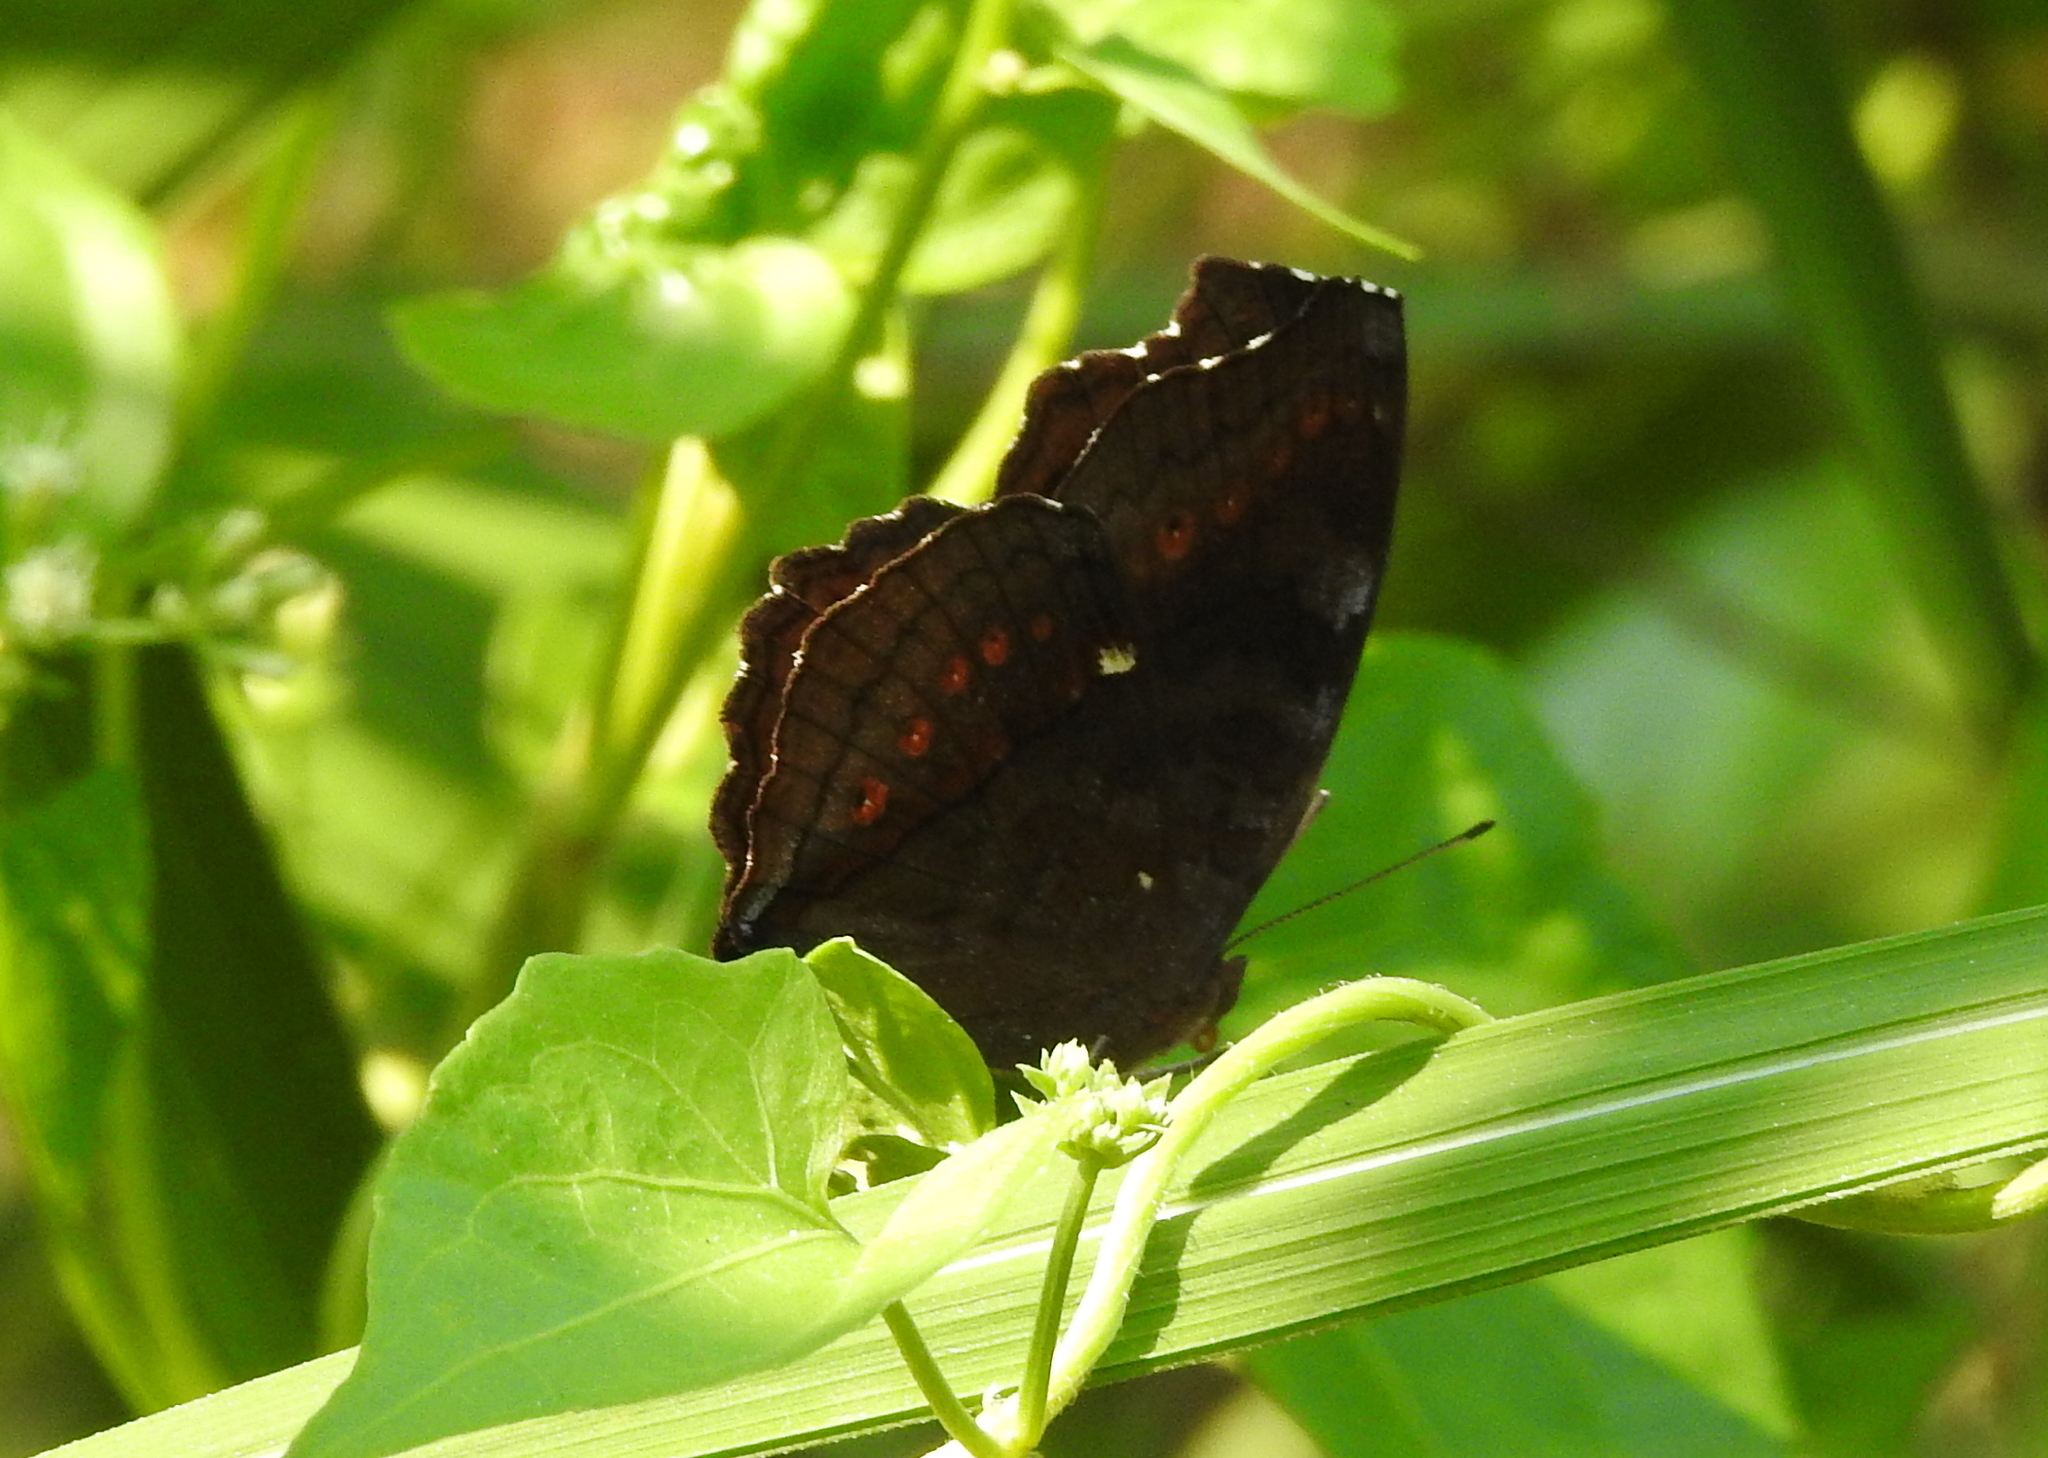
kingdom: Animalia
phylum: Arthropoda
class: Insecta
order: Lepidoptera
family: Nymphalidae
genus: Junonia
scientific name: Junonia hedonia
